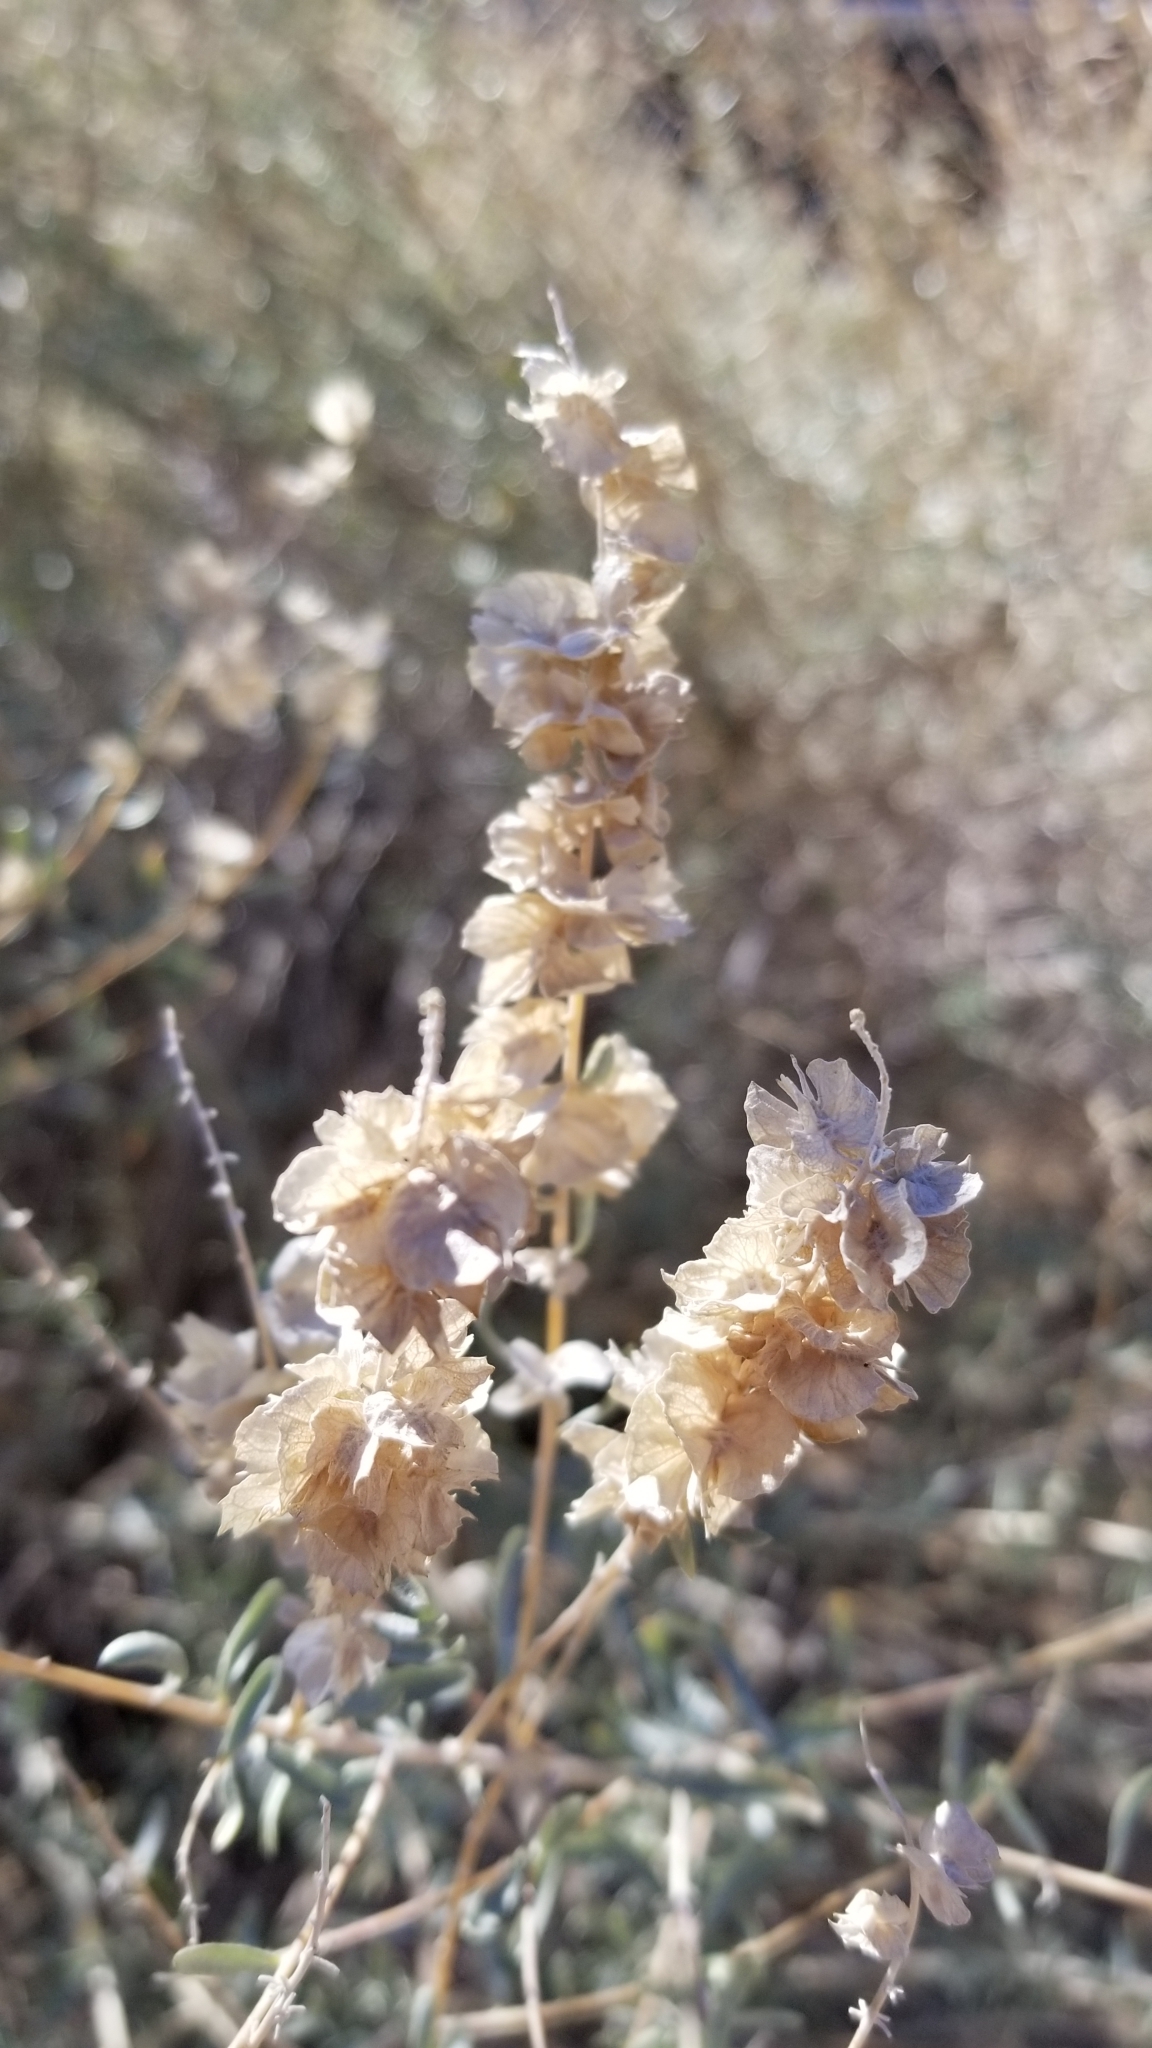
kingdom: Plantae
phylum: Tracheophyta
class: Magnoliopsida
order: Caryophyllales
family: Amaranthaceae
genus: Atriplex
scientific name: Atriplex canescens
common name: Four-wing saltbush
